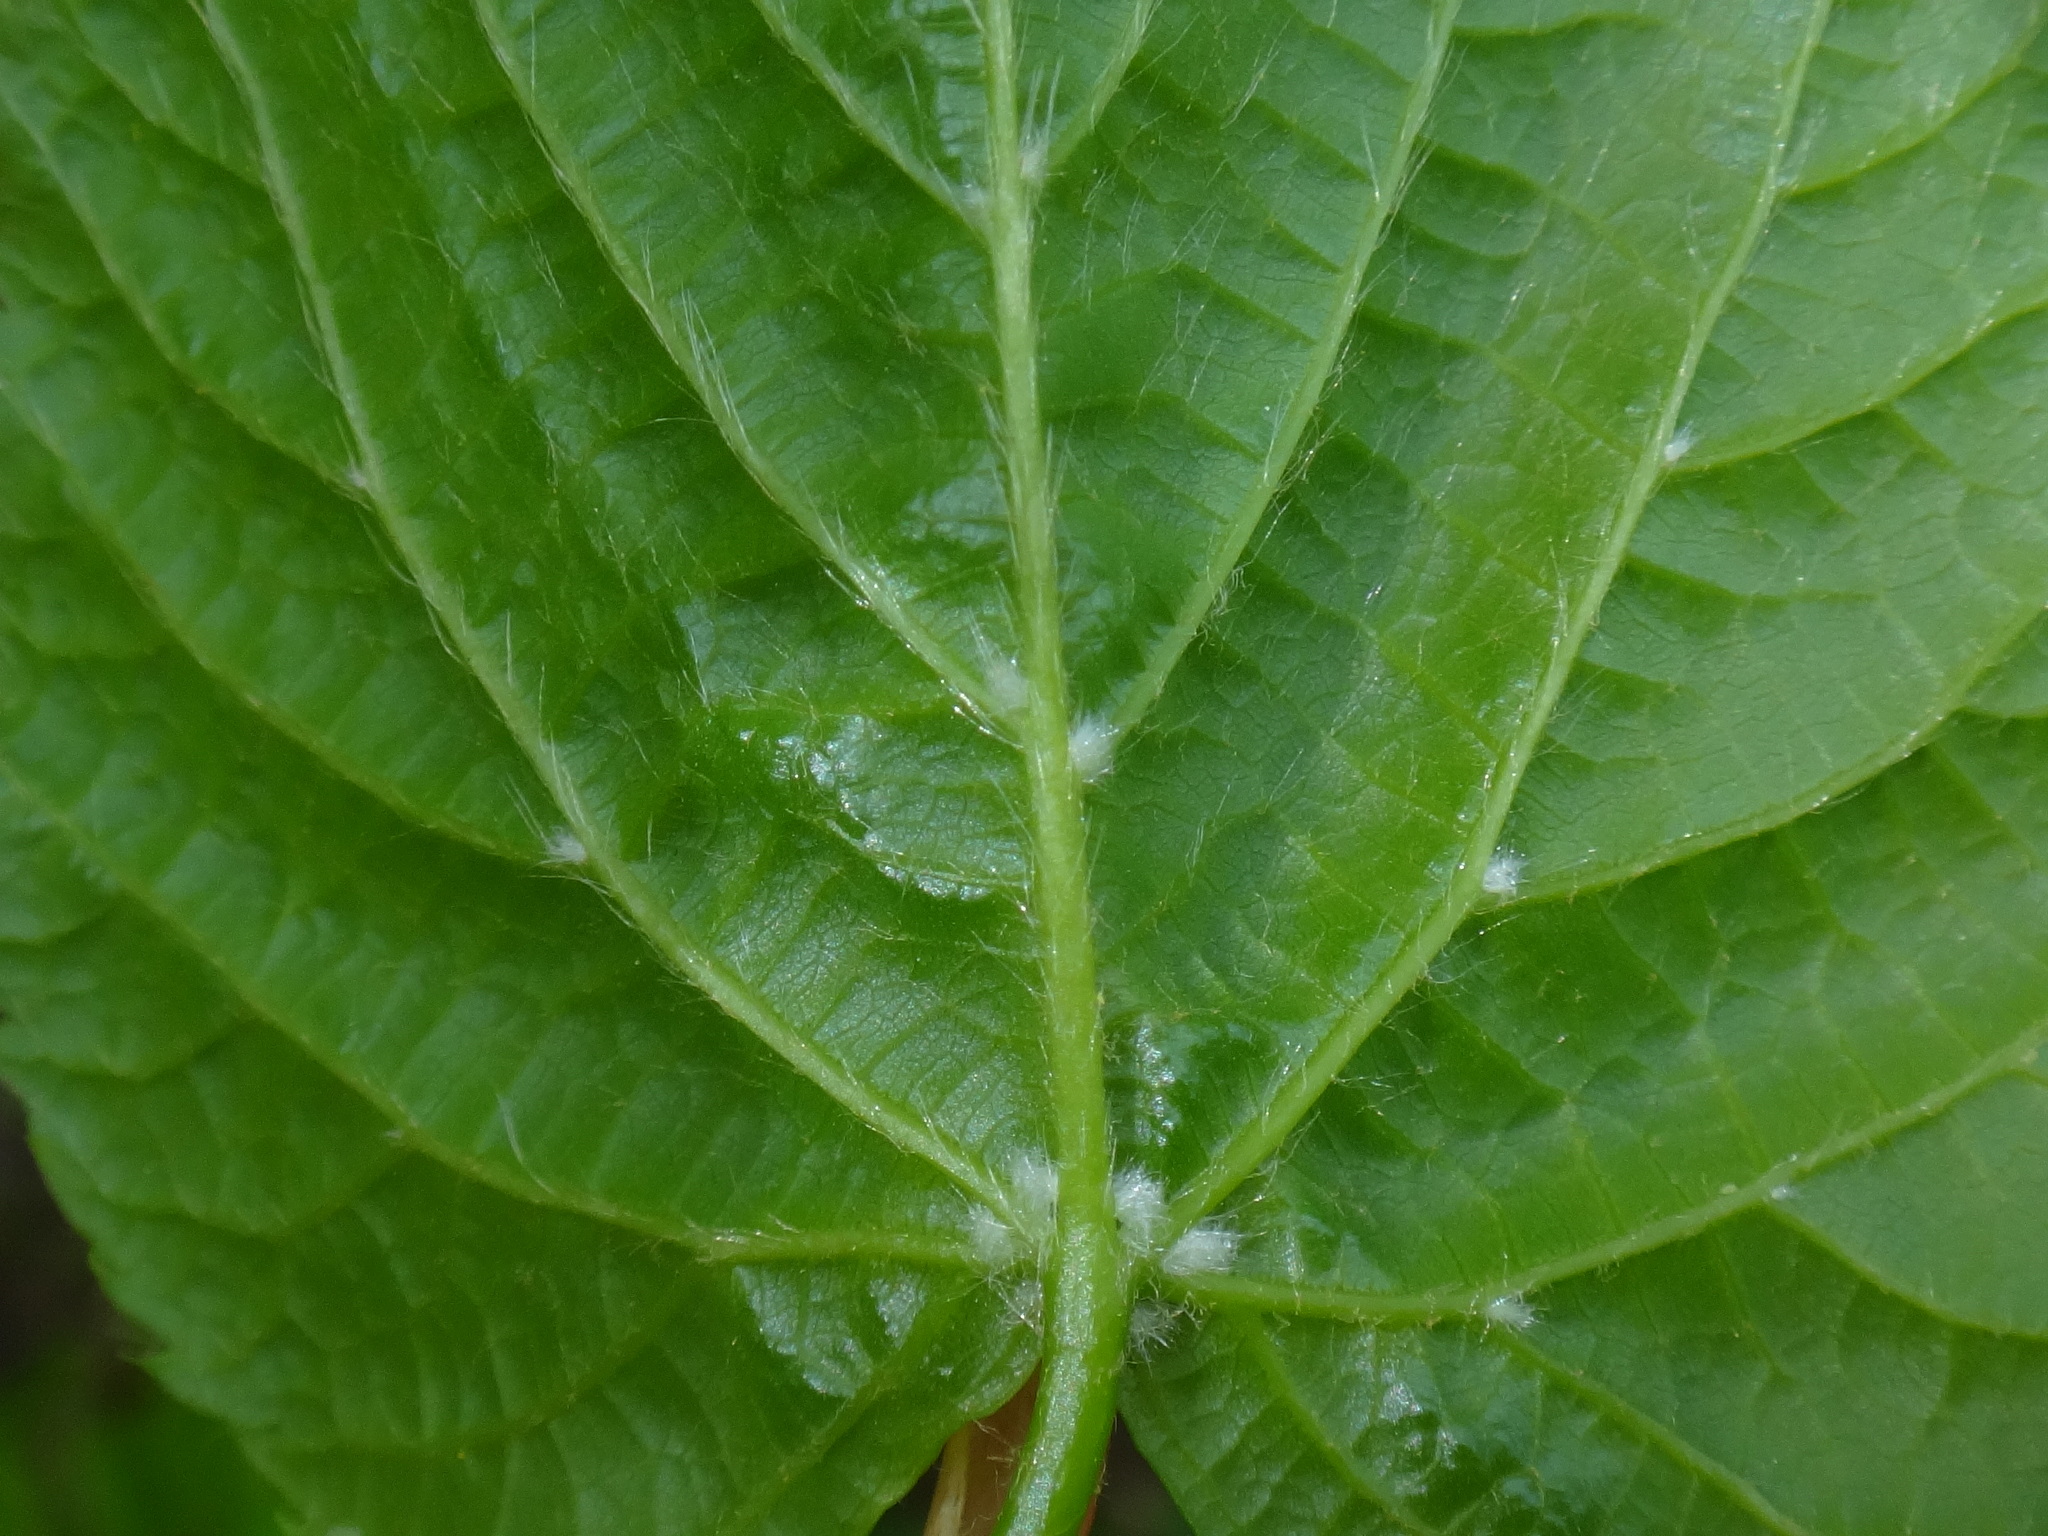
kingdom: Plantae
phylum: Tracheophyta
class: Magnoliopsida
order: Malvales
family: Malvaceae
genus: Tilia
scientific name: Tilia platyphyllos
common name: Large-leaved lime
